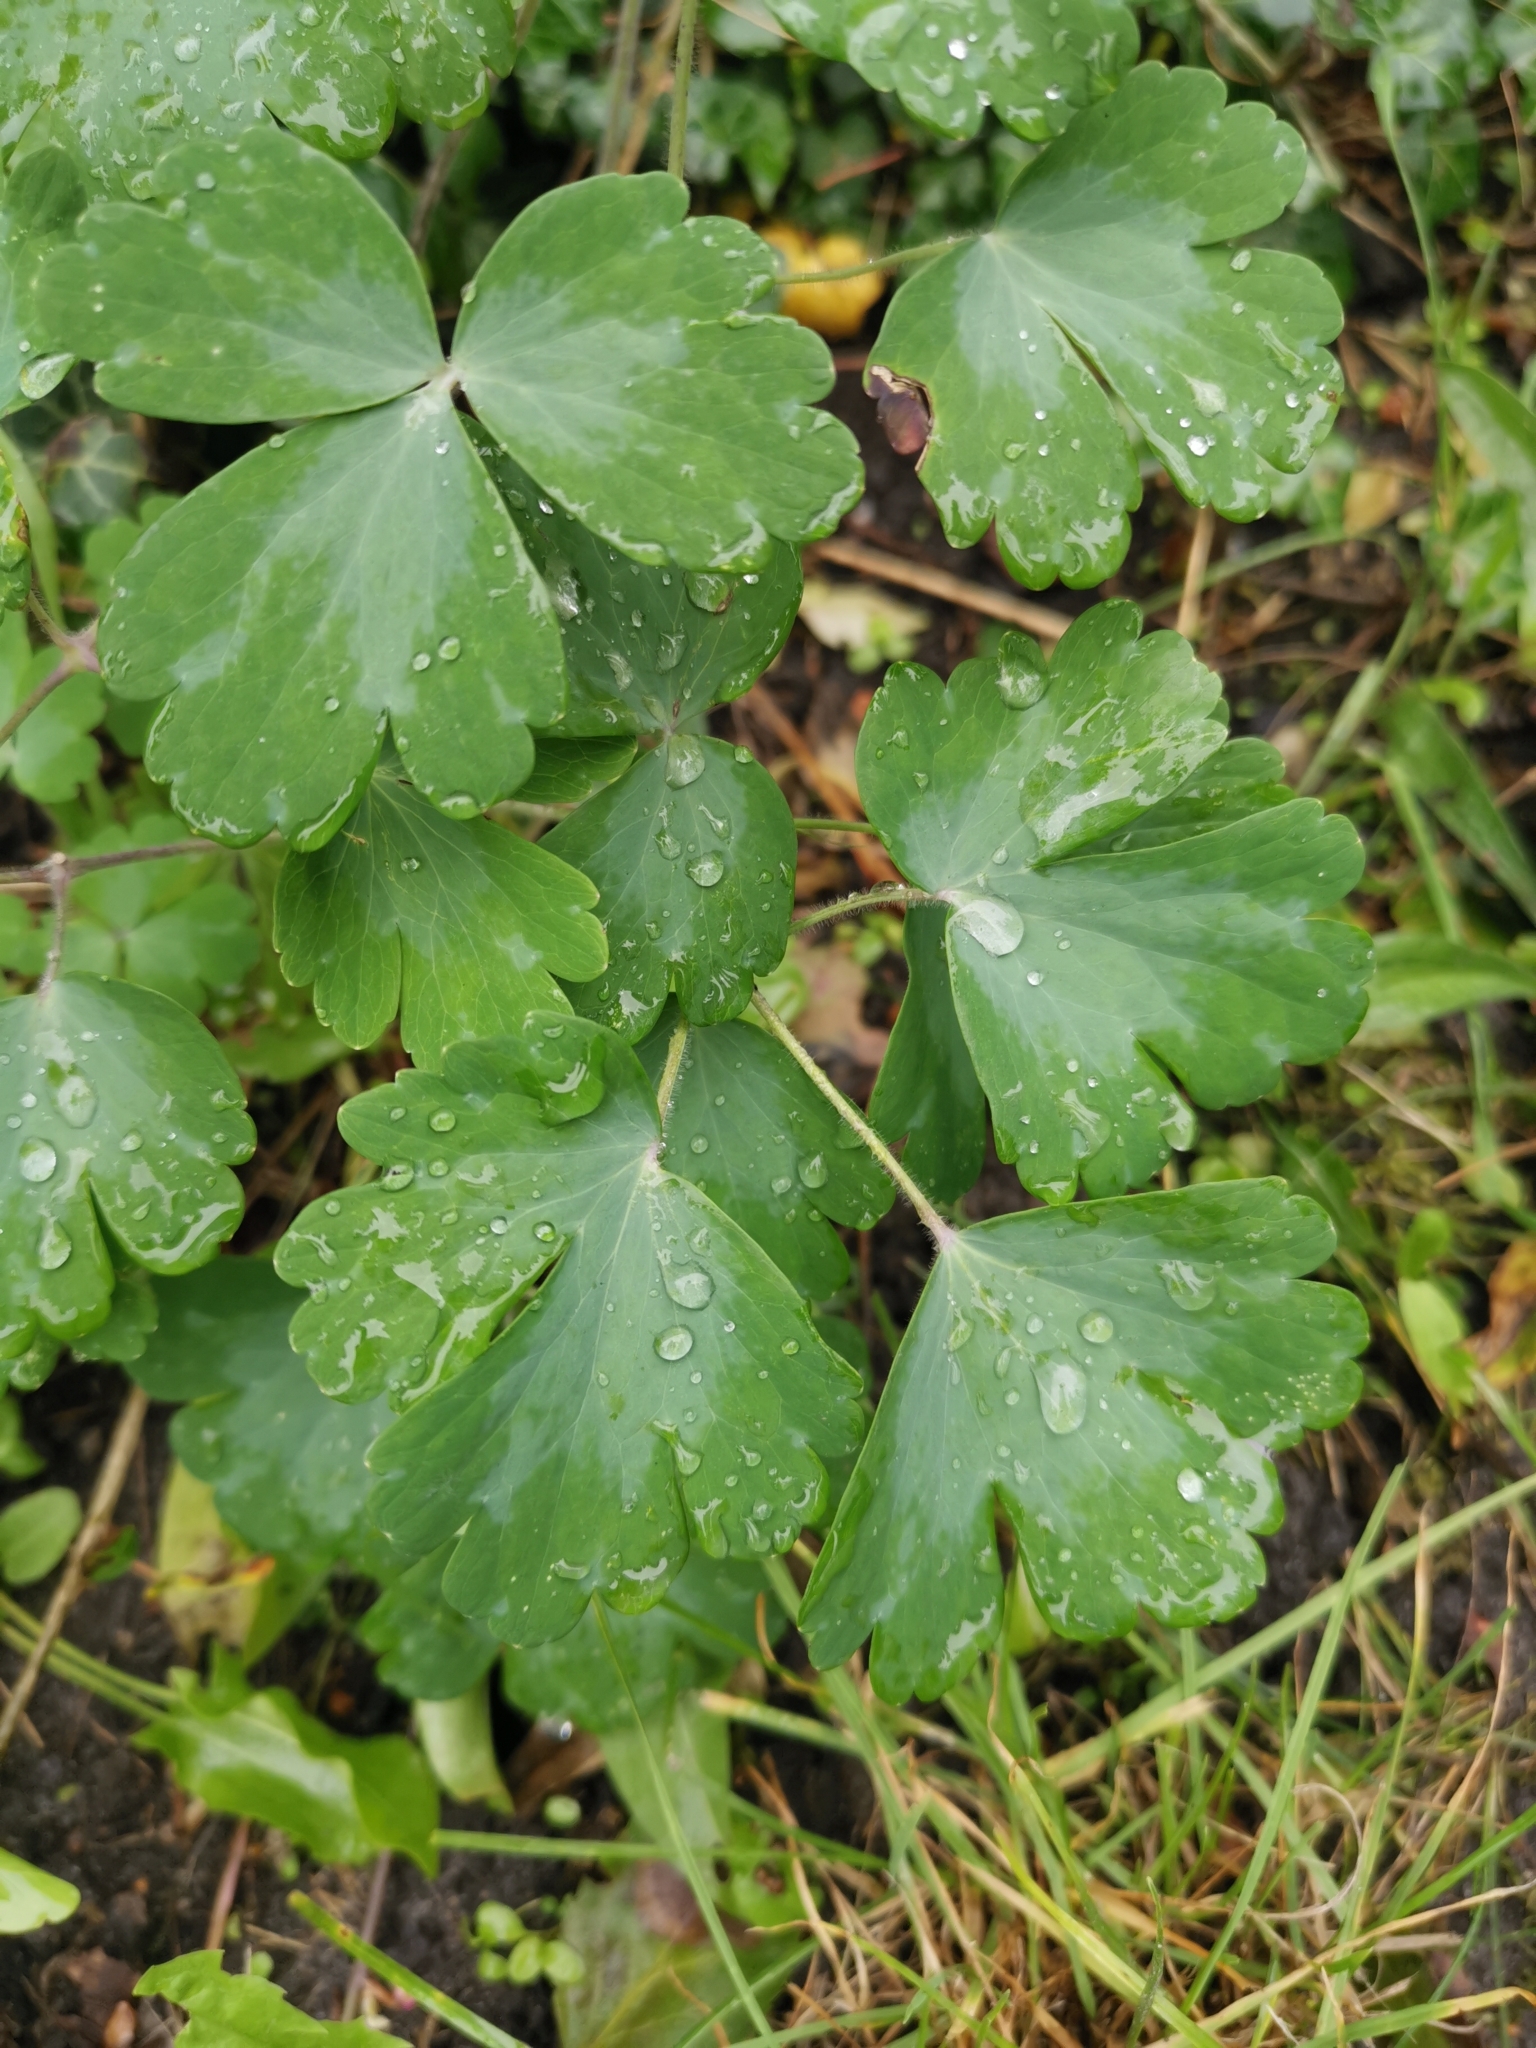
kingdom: Plantae
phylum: Tracheophyta
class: Magnoliopsida
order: Ranunculales
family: Ranunculaceae
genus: Aquilegia
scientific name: Aquilegia vulgaris
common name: Columbine
